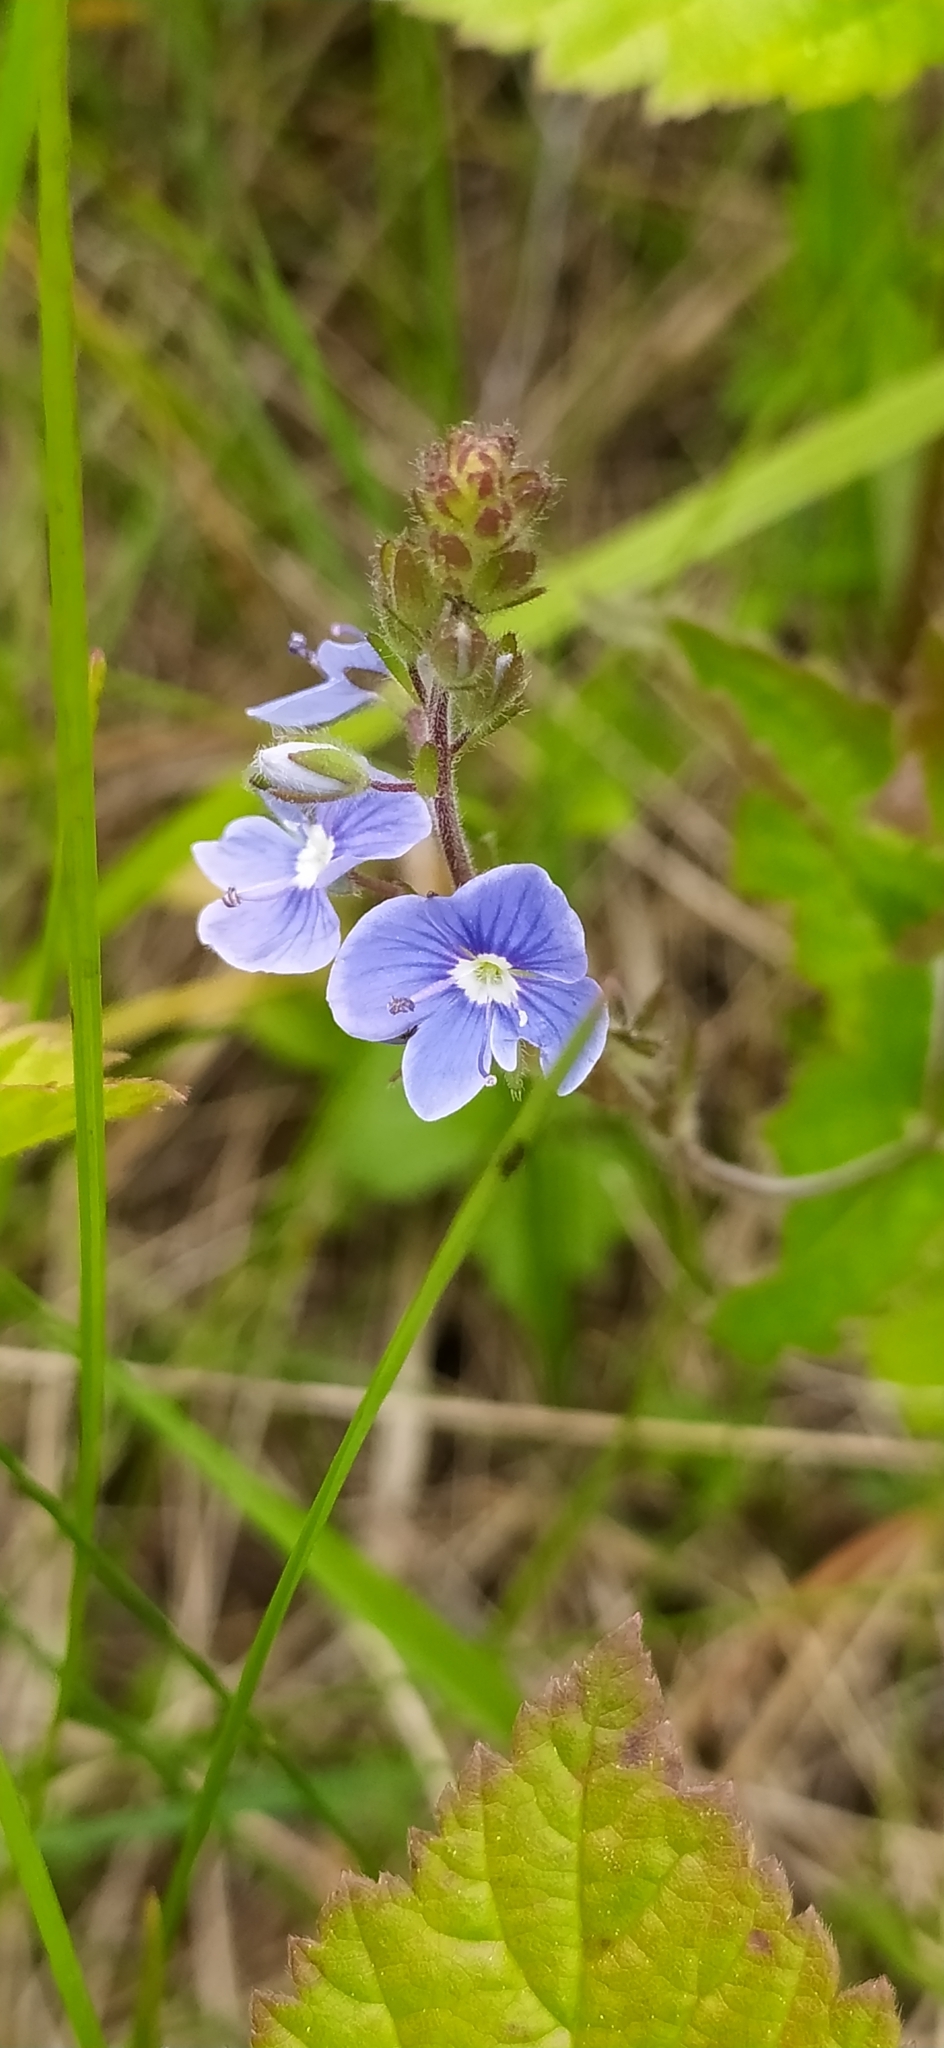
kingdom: Plantae
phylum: Tracheophyta
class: Magnoliopsida
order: Lamiales
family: Plantaginaceae
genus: Veronica
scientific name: Veronica chamaedrys
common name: Germander speedwell
